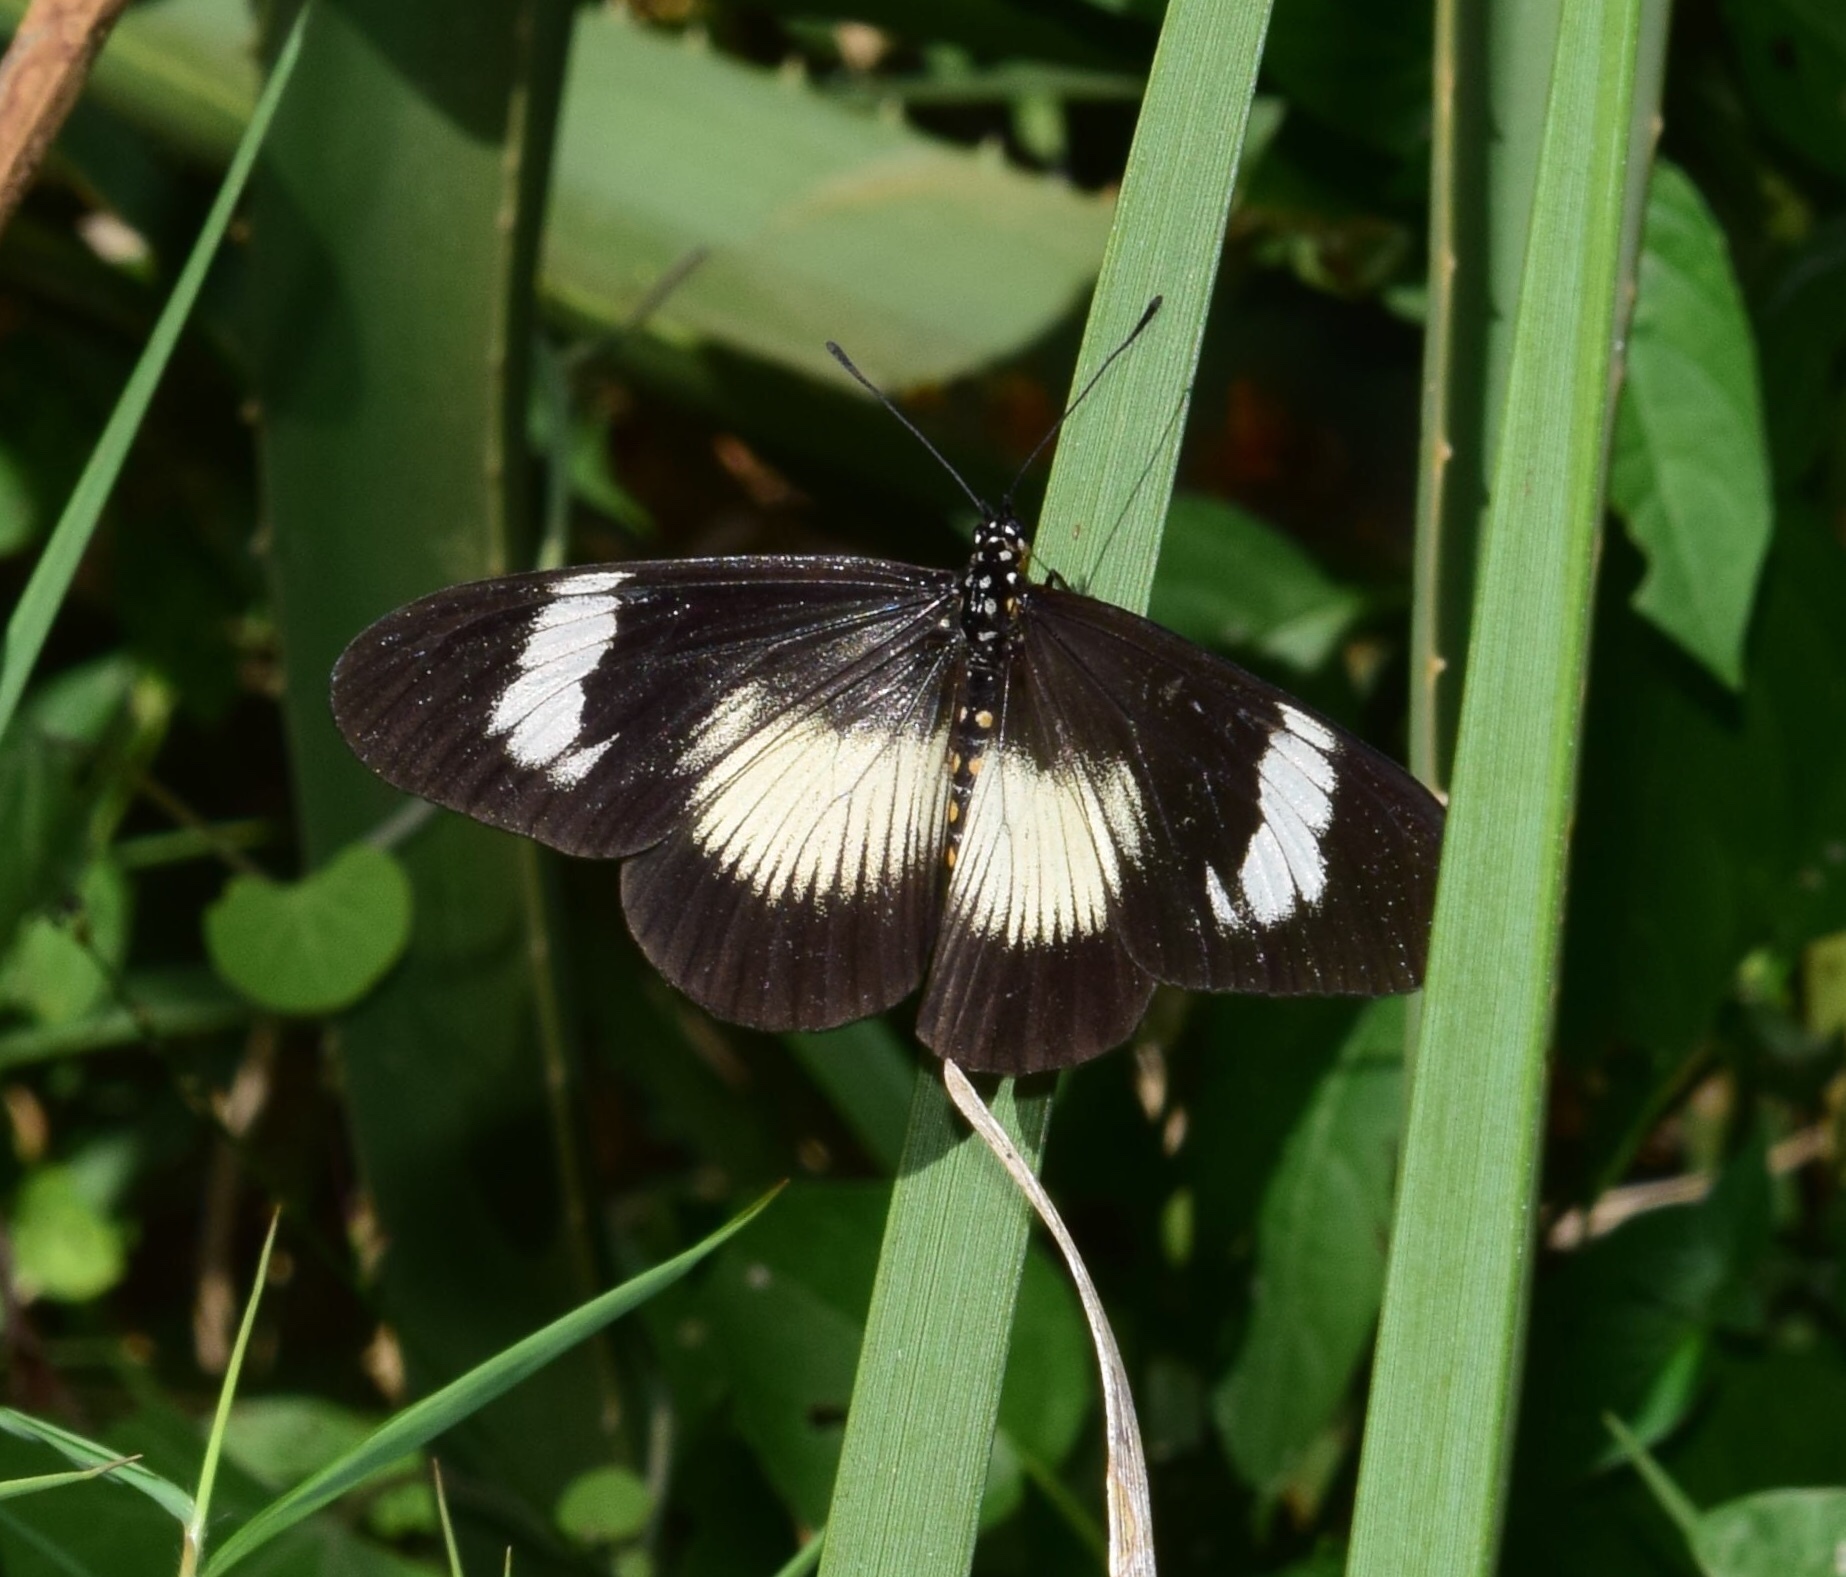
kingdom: Animalia
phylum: Arthropoda
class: Insecta
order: Lepidoptera
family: Nymphalidae
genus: Acraea
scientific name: Acraea Bematistes aganice
